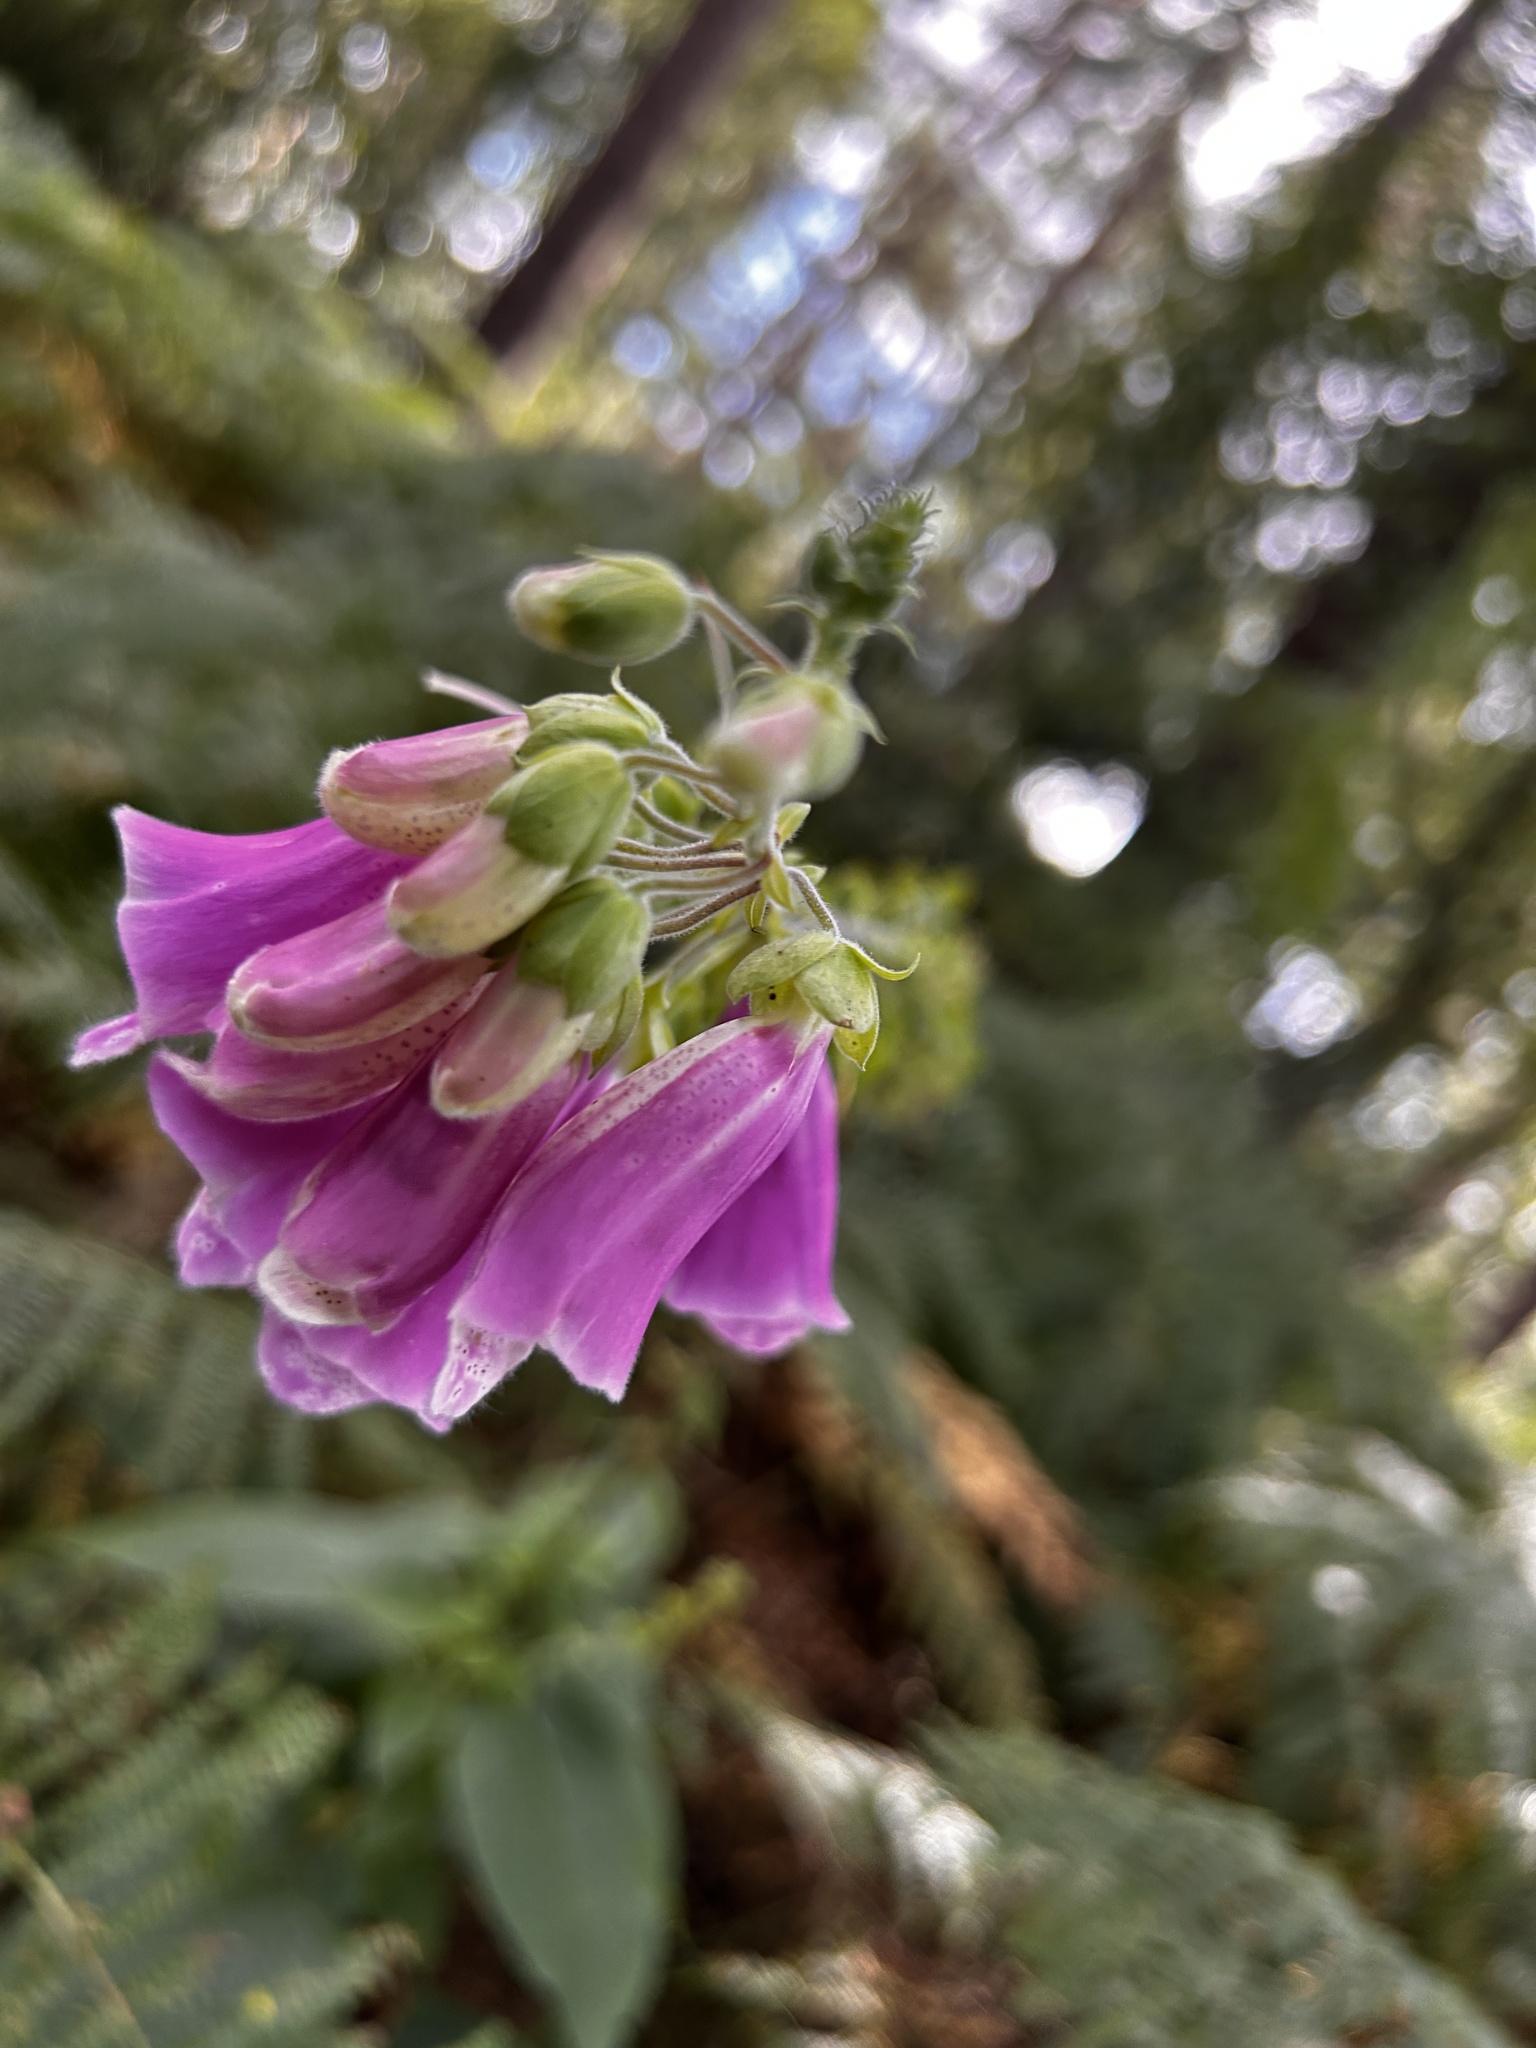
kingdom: Plantae
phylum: Tracheophyta
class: Magnoliopsida
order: Lamiales
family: Plantaginaceae
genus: Digitalis
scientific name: Digitalis purpurea
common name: Foxglove
